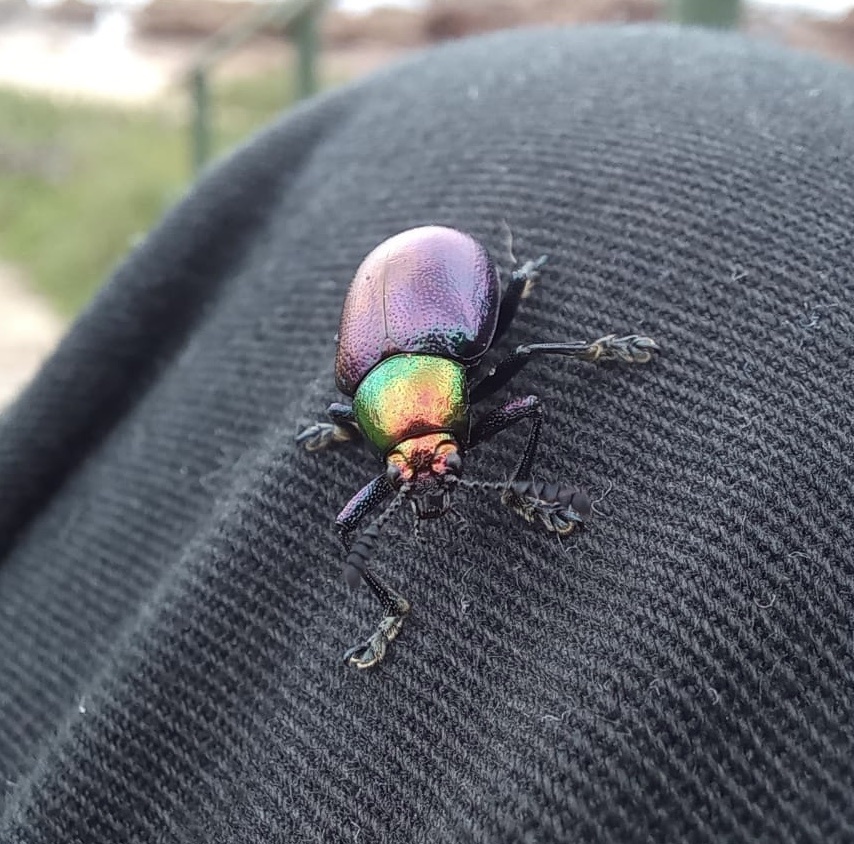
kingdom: Animalia
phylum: Arthropoda
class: Insecta
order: Coleoptera
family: Chrysomelidae
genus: Platycorynus
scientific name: Platycorynus dejeani
